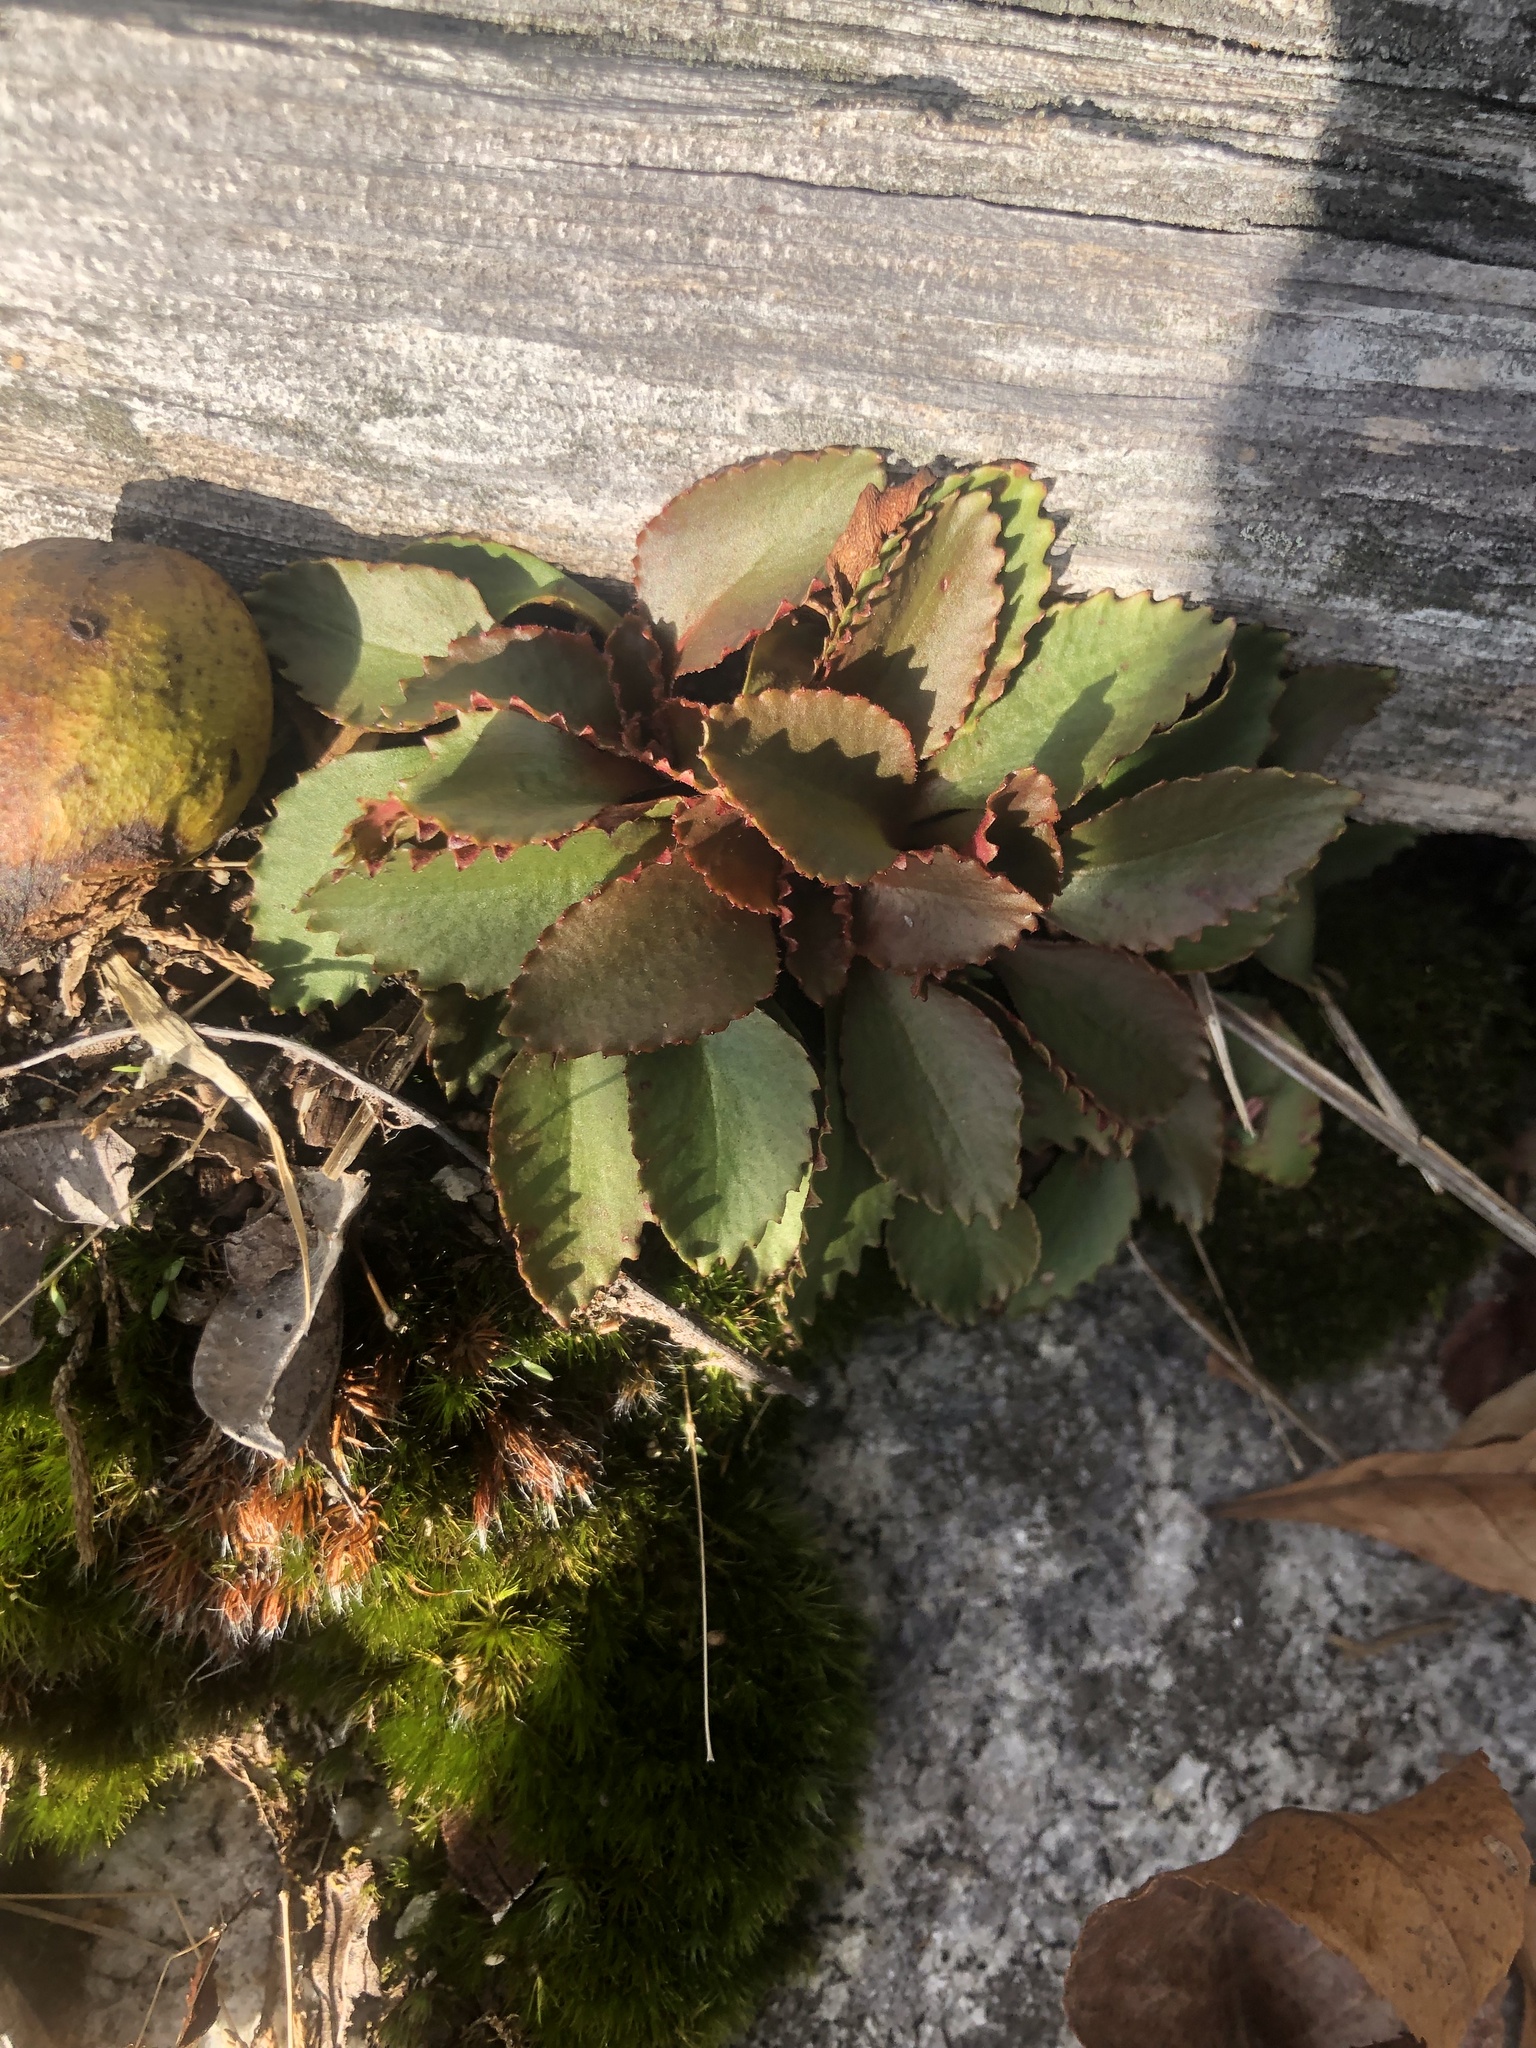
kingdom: Plantae
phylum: Tracheophyta
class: Magnoliopsida
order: Saxifragales
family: Saxifragaceae
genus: Micranthes
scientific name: Micranthes virginiensis
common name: Early saxifrage
